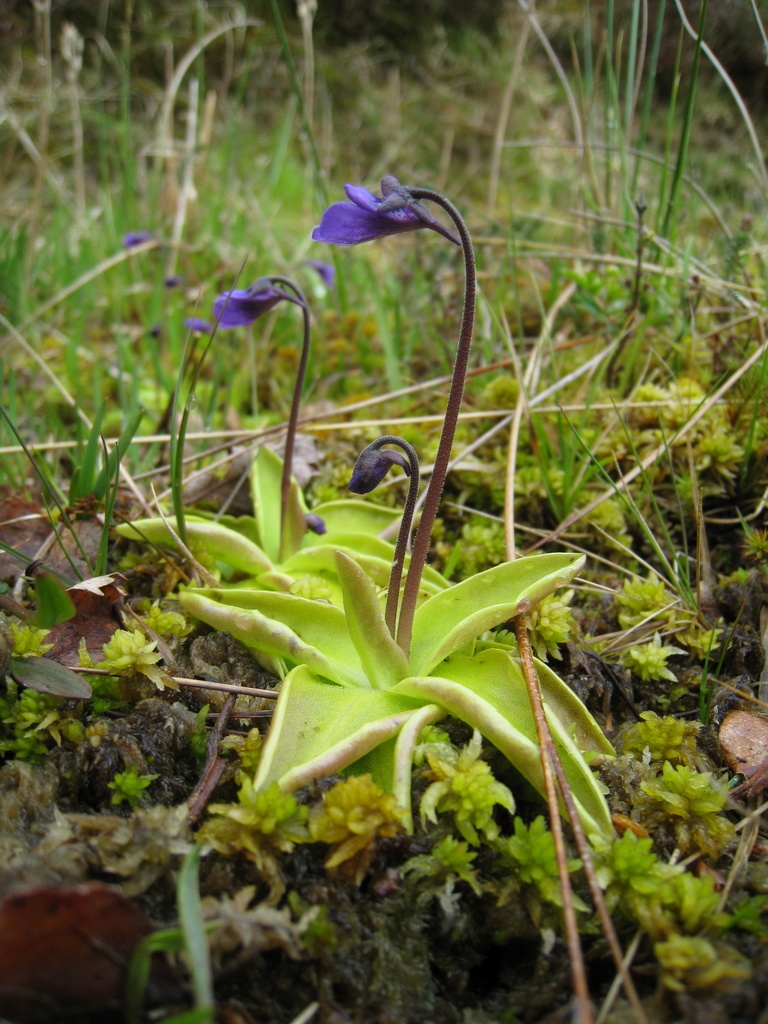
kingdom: Plantae
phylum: Tracheophyta
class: Magnoliopsida
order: Lamiales
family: Lentibulariaceae
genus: Pinguicula
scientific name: Pinguicula vulgaris
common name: Common butterwort
